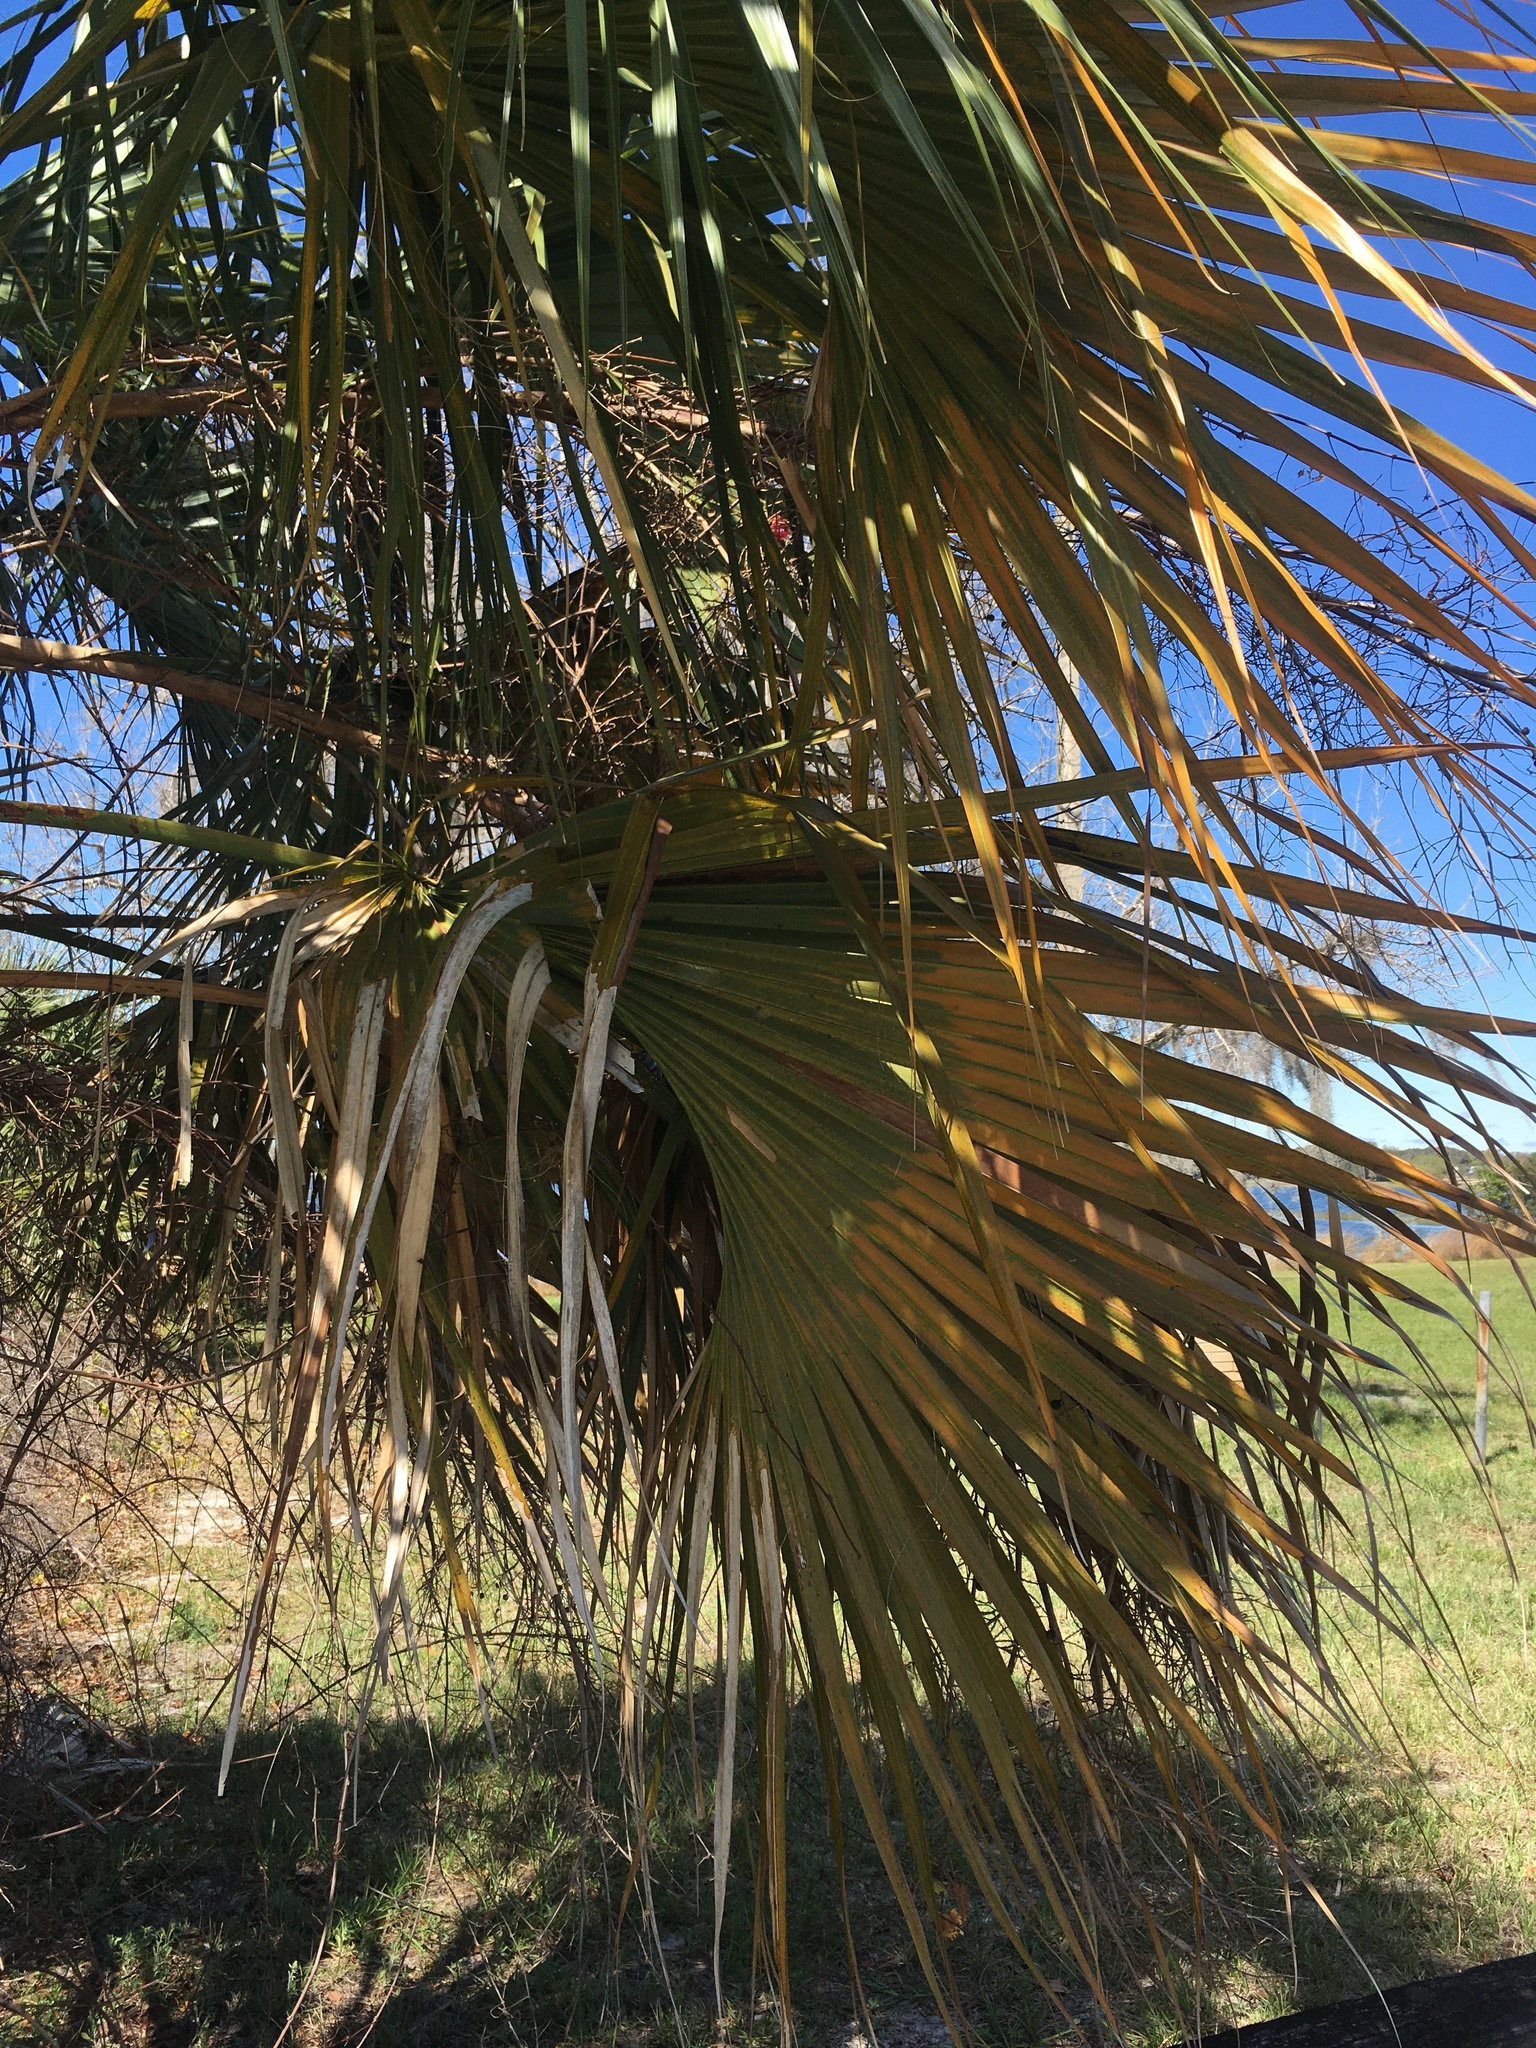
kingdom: Plantae
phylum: Tracheophyta
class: Liliopsida
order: Arecales
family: Arecaceae
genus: Sabal
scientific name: Sabal palmetto
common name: Blue palmetto
